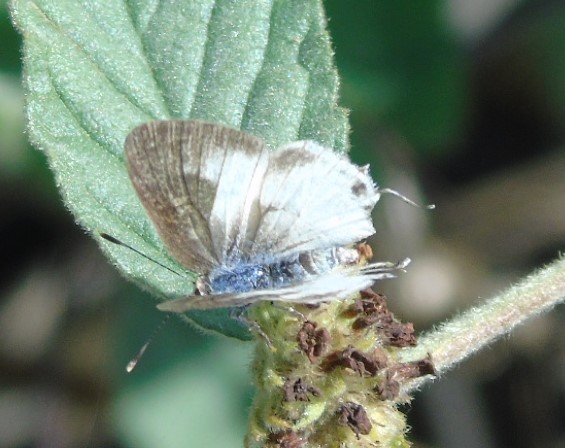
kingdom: Animalia
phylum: Arthropoda
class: Insecta
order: Lepidoptera
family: Lycaenidae
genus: Strymon
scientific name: Strymon albata
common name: White scrub-hairstreak
